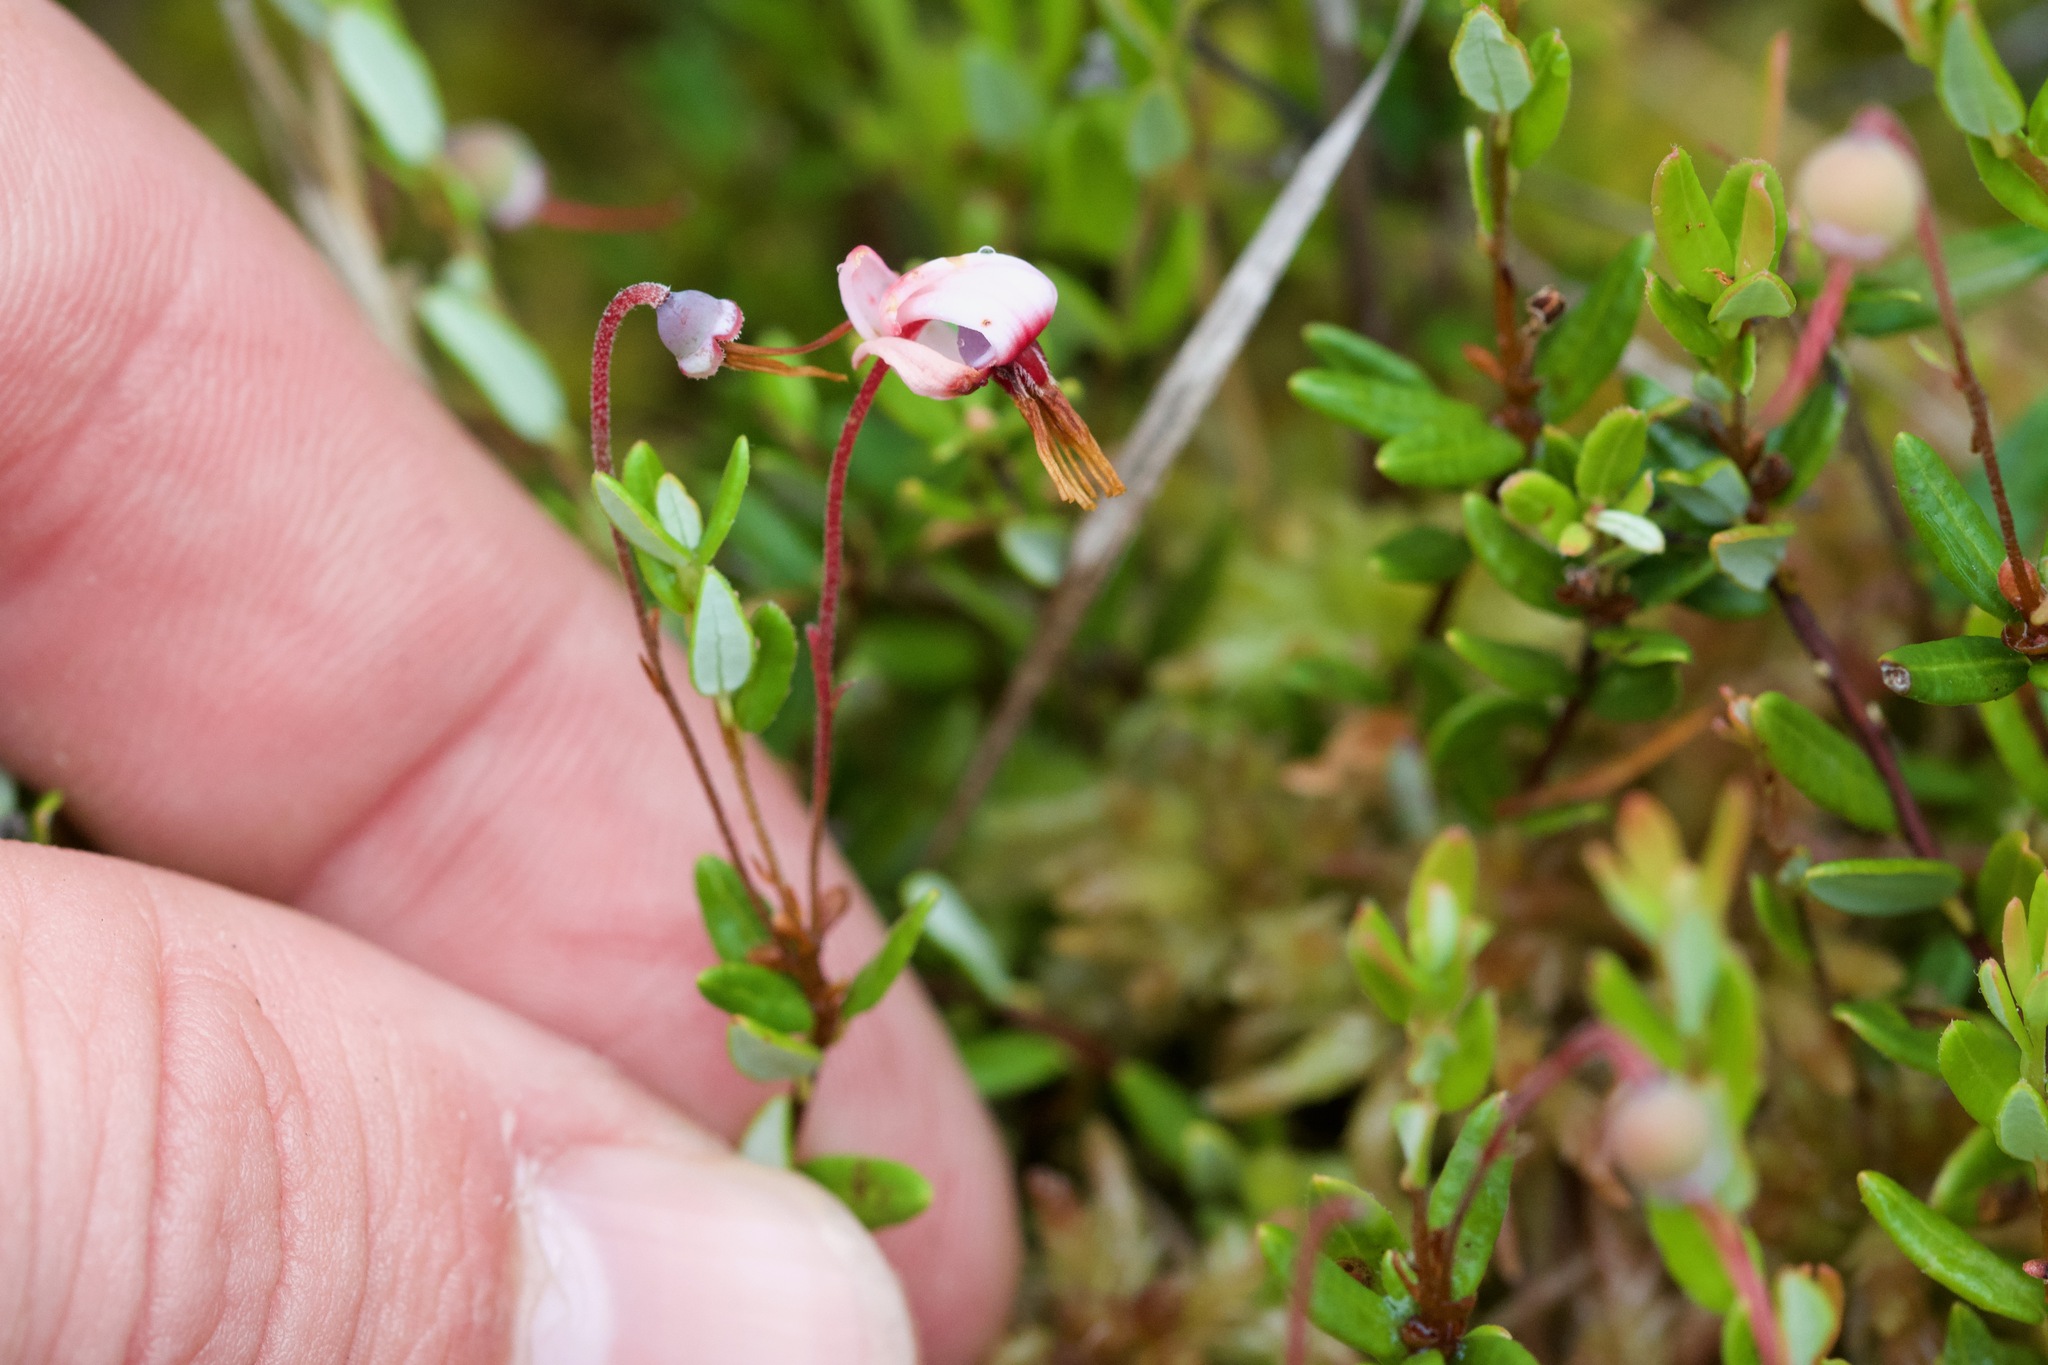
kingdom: Plantae
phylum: Tracheophyta
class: Magnoliopsida
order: Ericales
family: Ericaceae
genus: Vaccinium
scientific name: Vaccinium oxycoccos
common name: Cranberry
